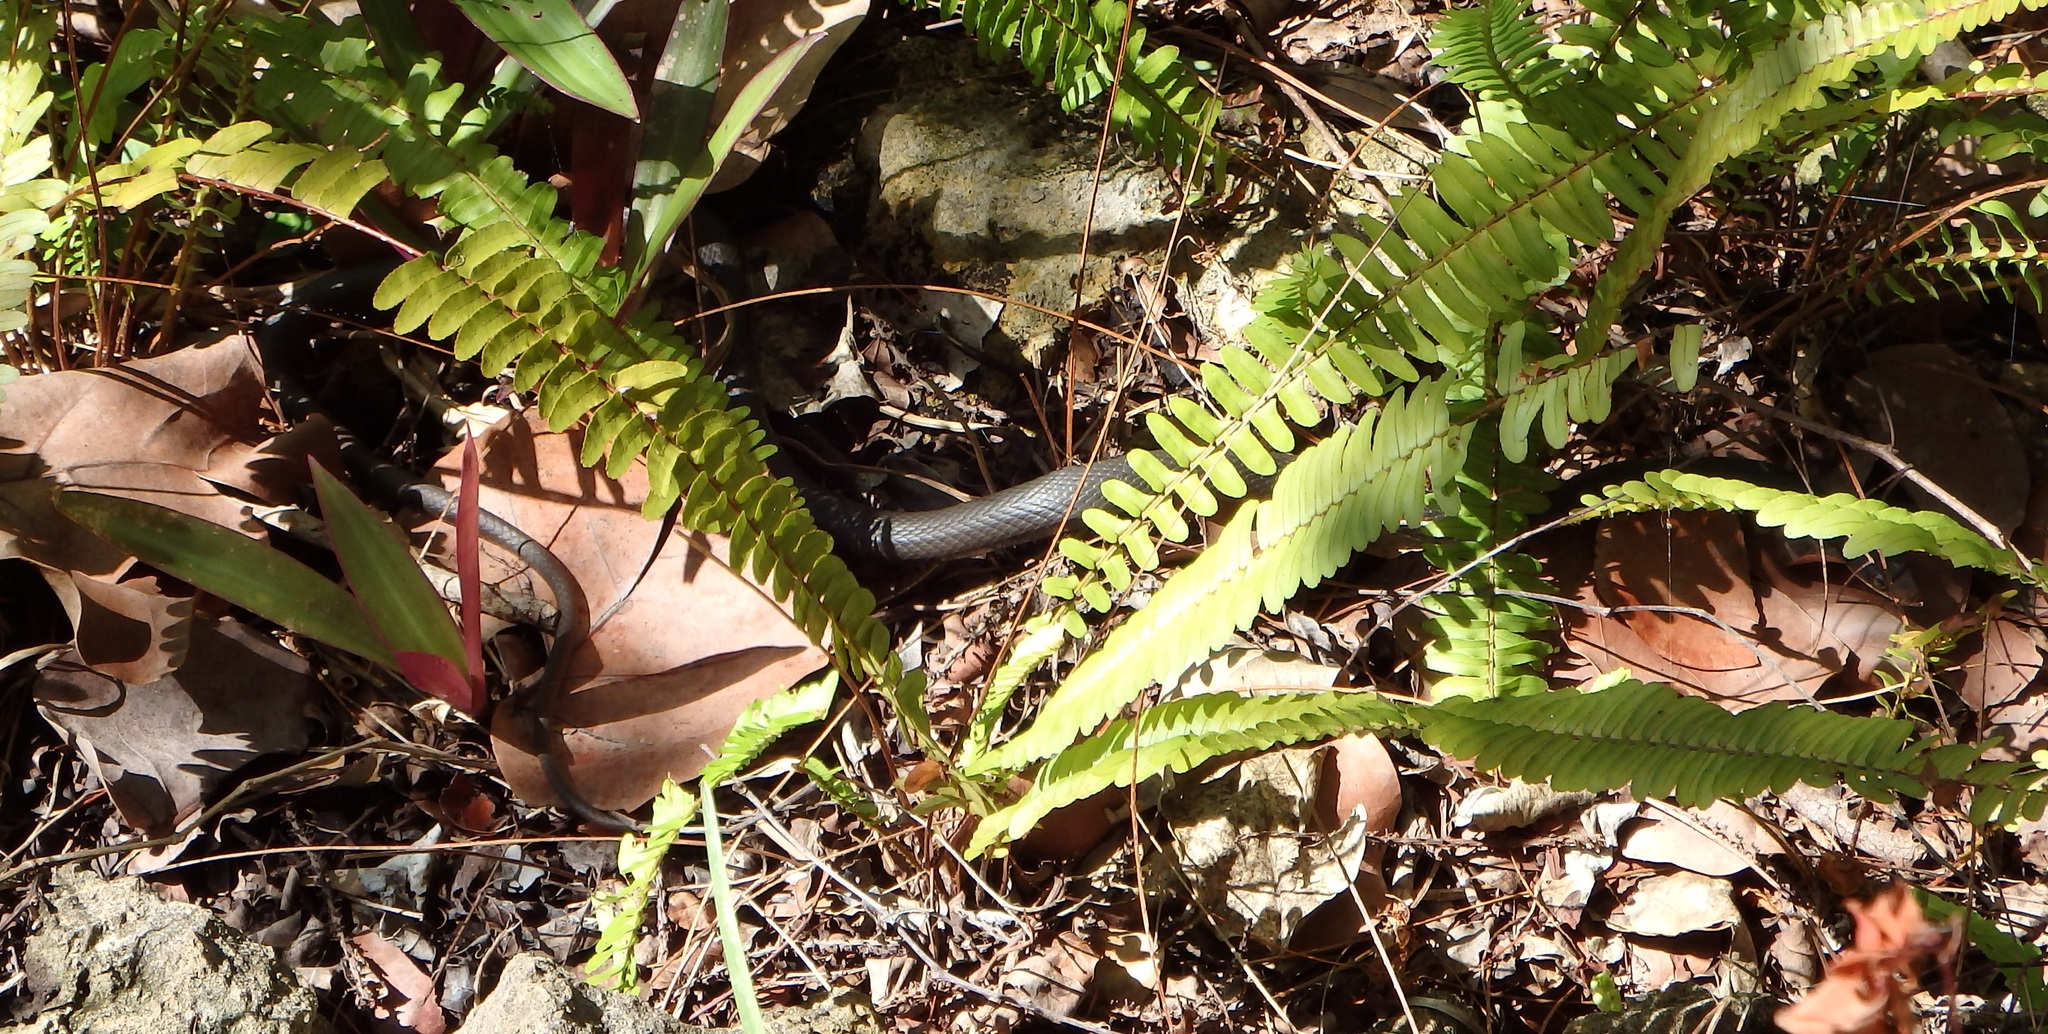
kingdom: Animalia
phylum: Chordata
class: Squamata
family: Colubridae
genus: Coluber
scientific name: Coluber constrictor
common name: Eastern racer
